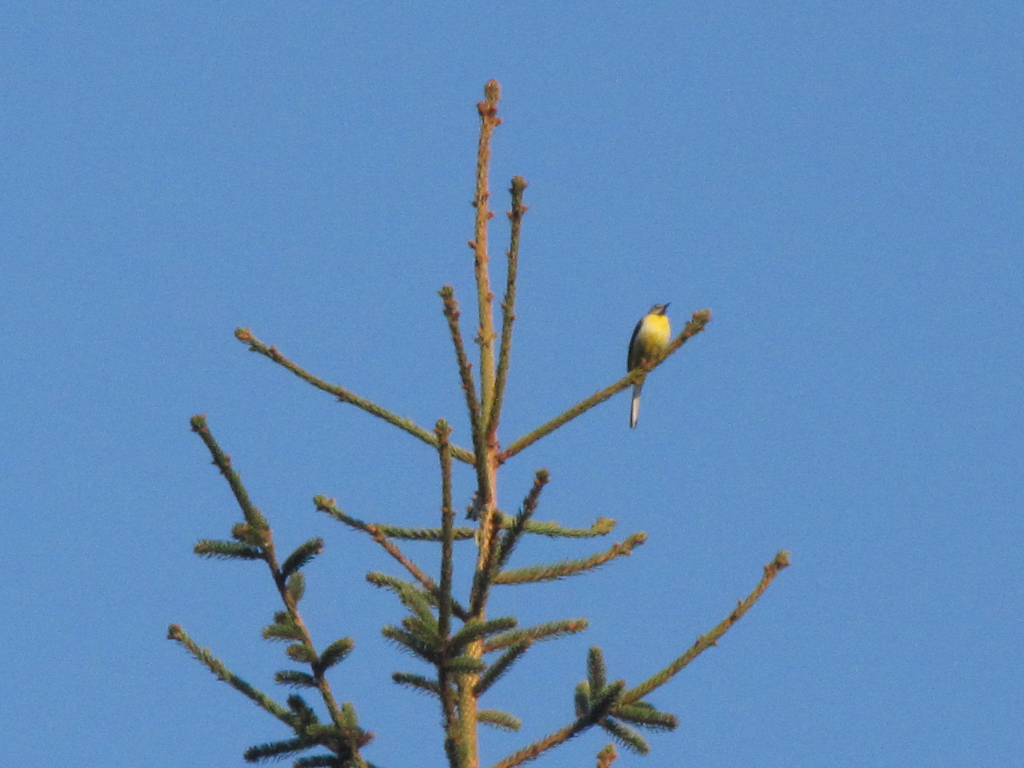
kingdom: Animalia
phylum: Chordata
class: Aves
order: Passeriformes
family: Motacillidae
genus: Motacilla
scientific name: Motacilla cinerea
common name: Grey wagtail
